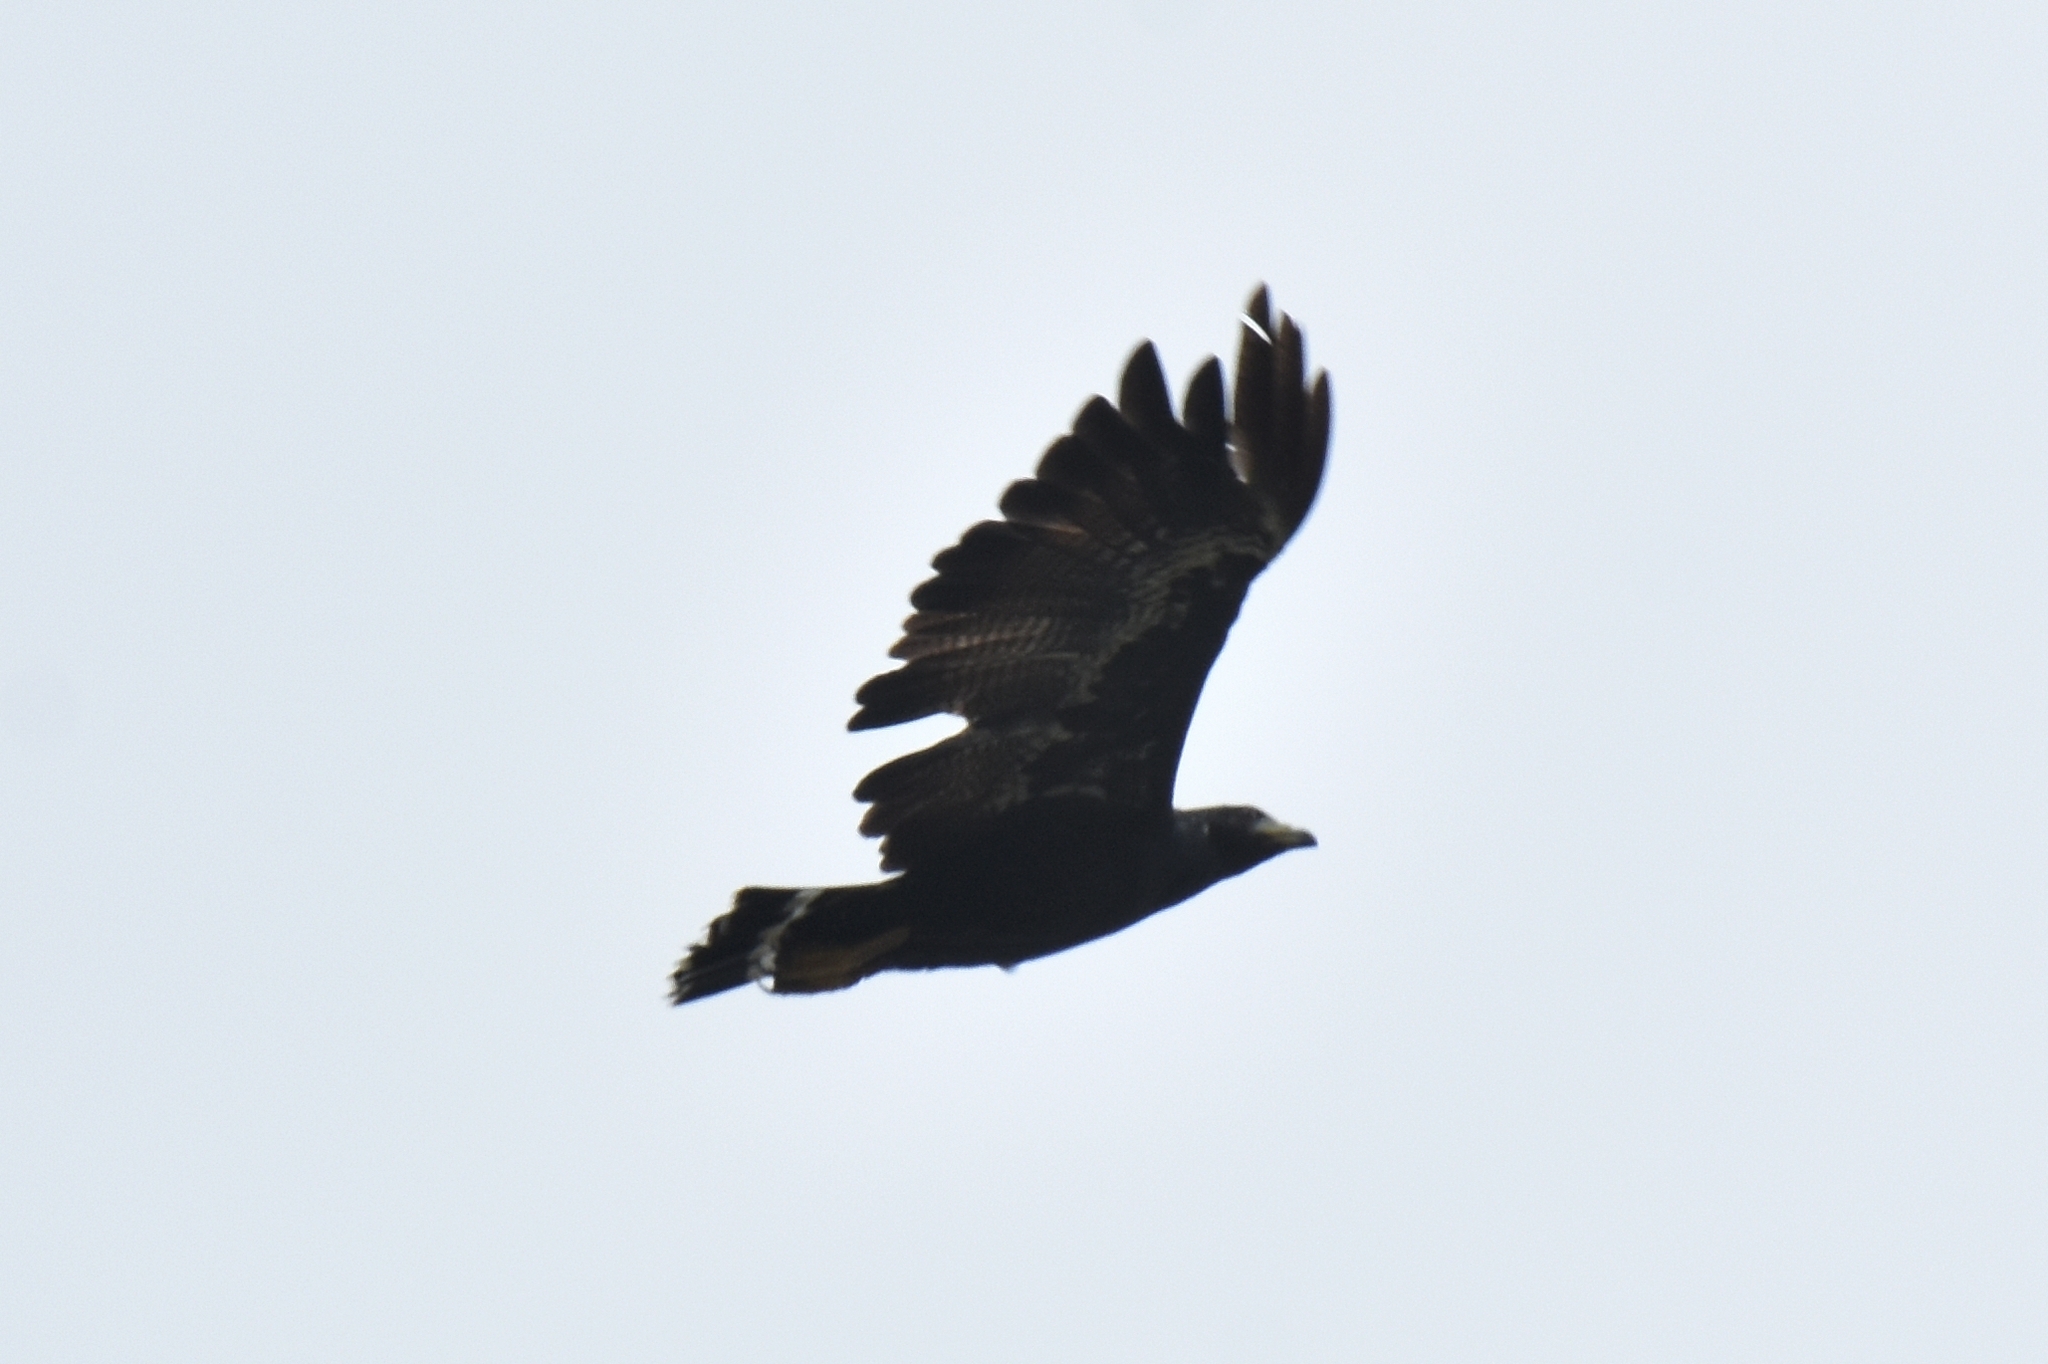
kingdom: Animalia
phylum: Chordata
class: Aves
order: Accipitriformes
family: Accipitridae
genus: Buteogallus
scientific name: Buteogallus anthracinus
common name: Common black hawk
